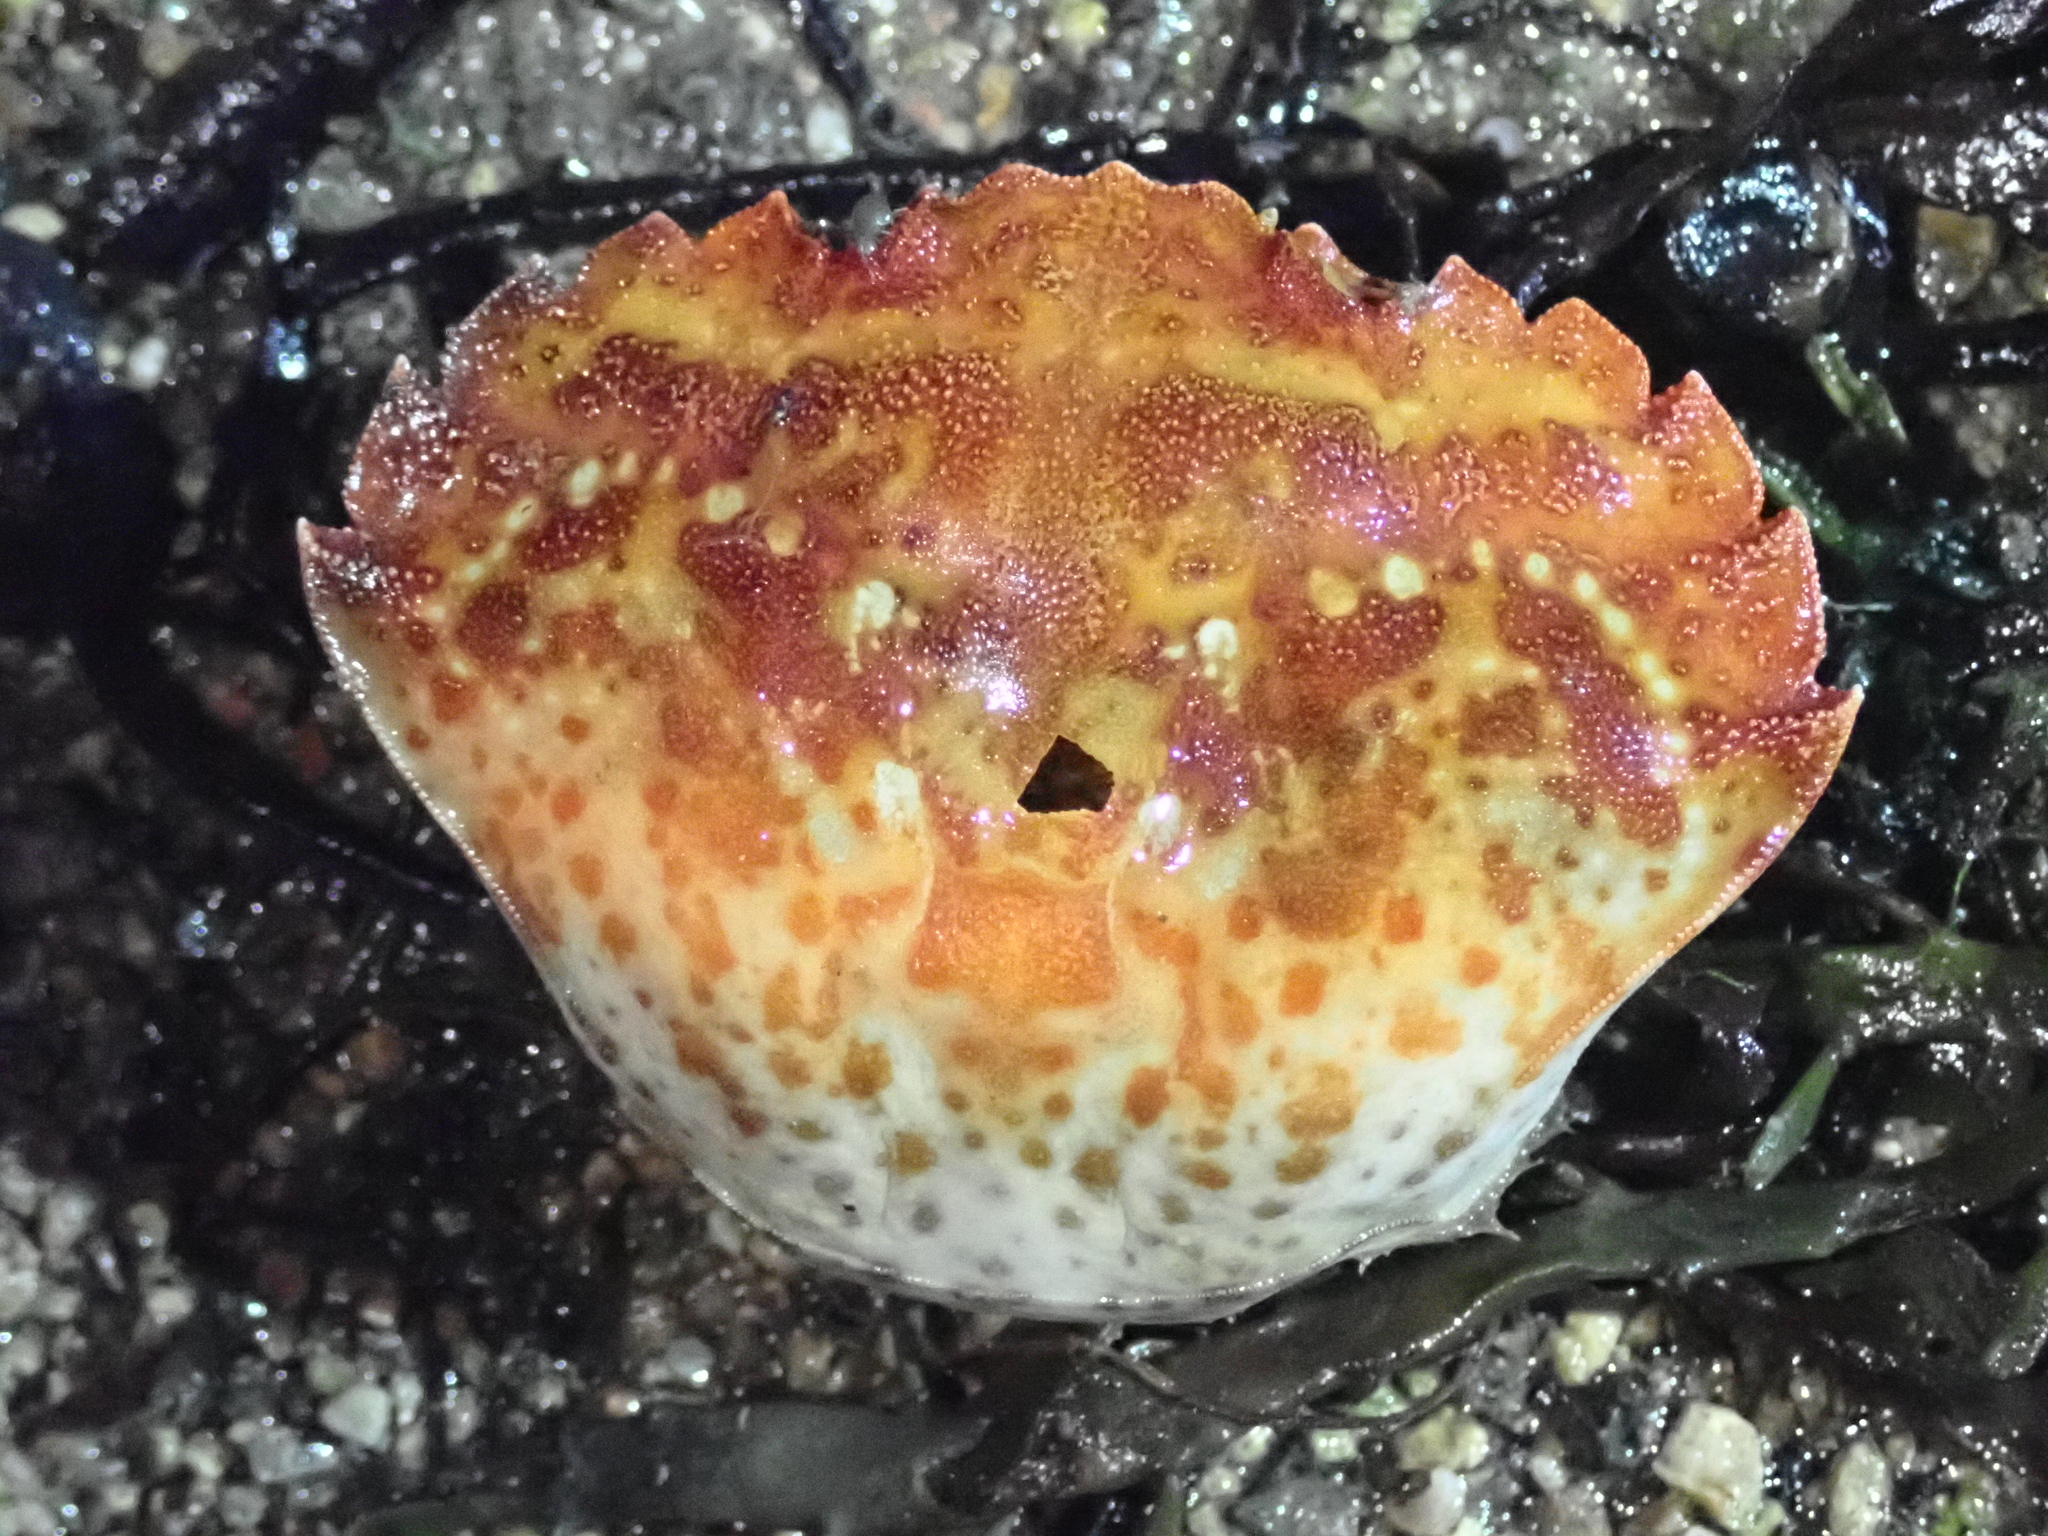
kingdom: Animalia
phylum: Arthropoda
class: Malacostraca
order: Decapoda
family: Carcinidae
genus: Carcinus
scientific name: Carcinus maenas
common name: European green crab
